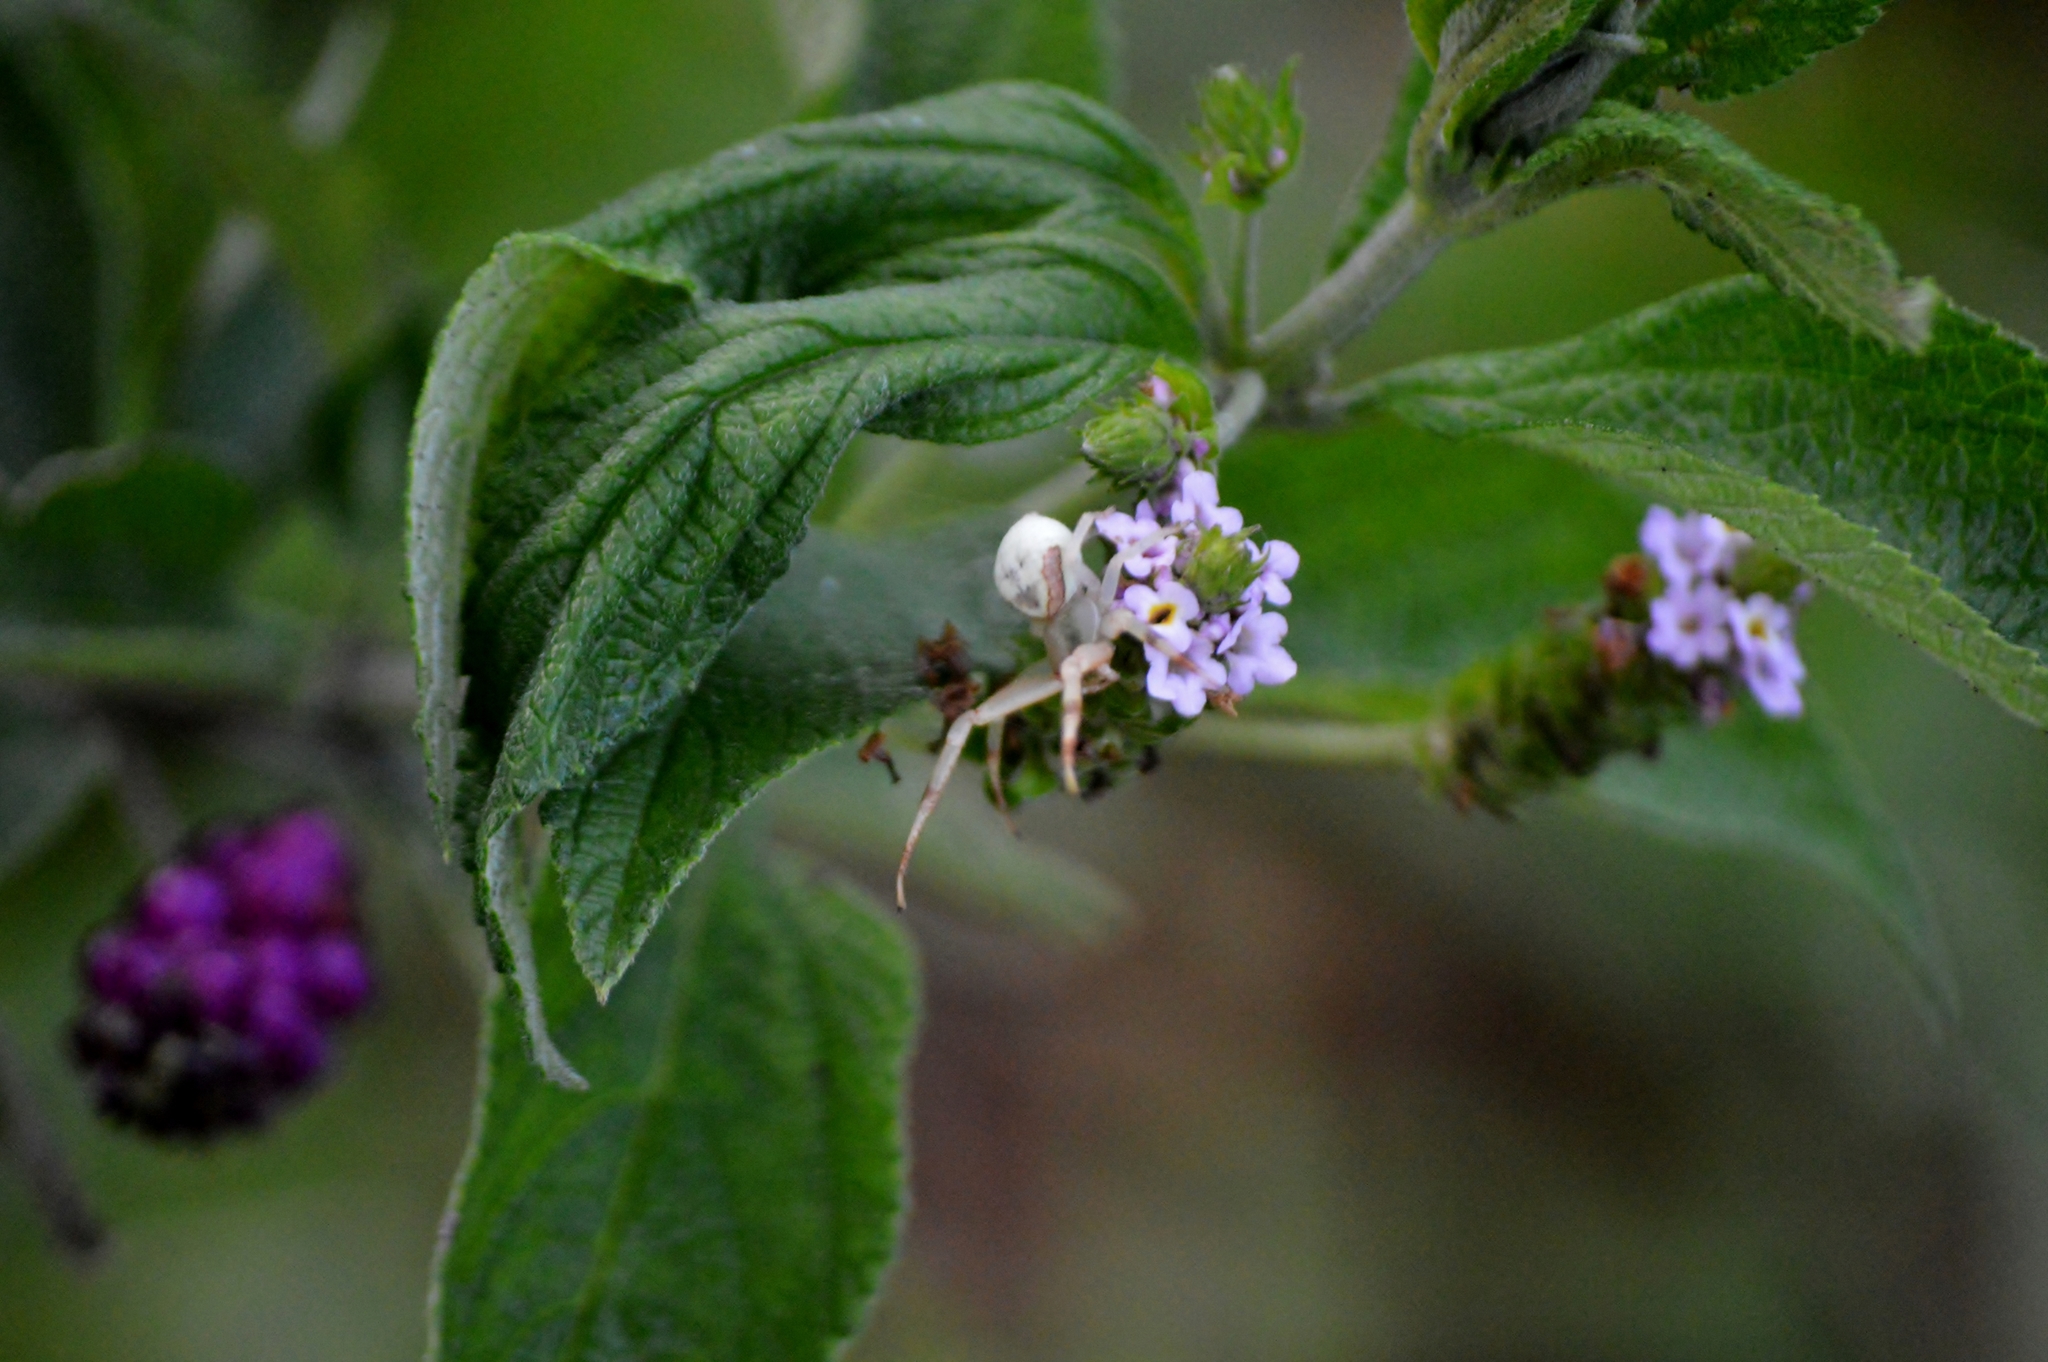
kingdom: Animalia
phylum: Arthropoda
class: Arachnida
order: Araneae
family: Thomisidae
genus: Misumenops
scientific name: Misumenops callinurus
